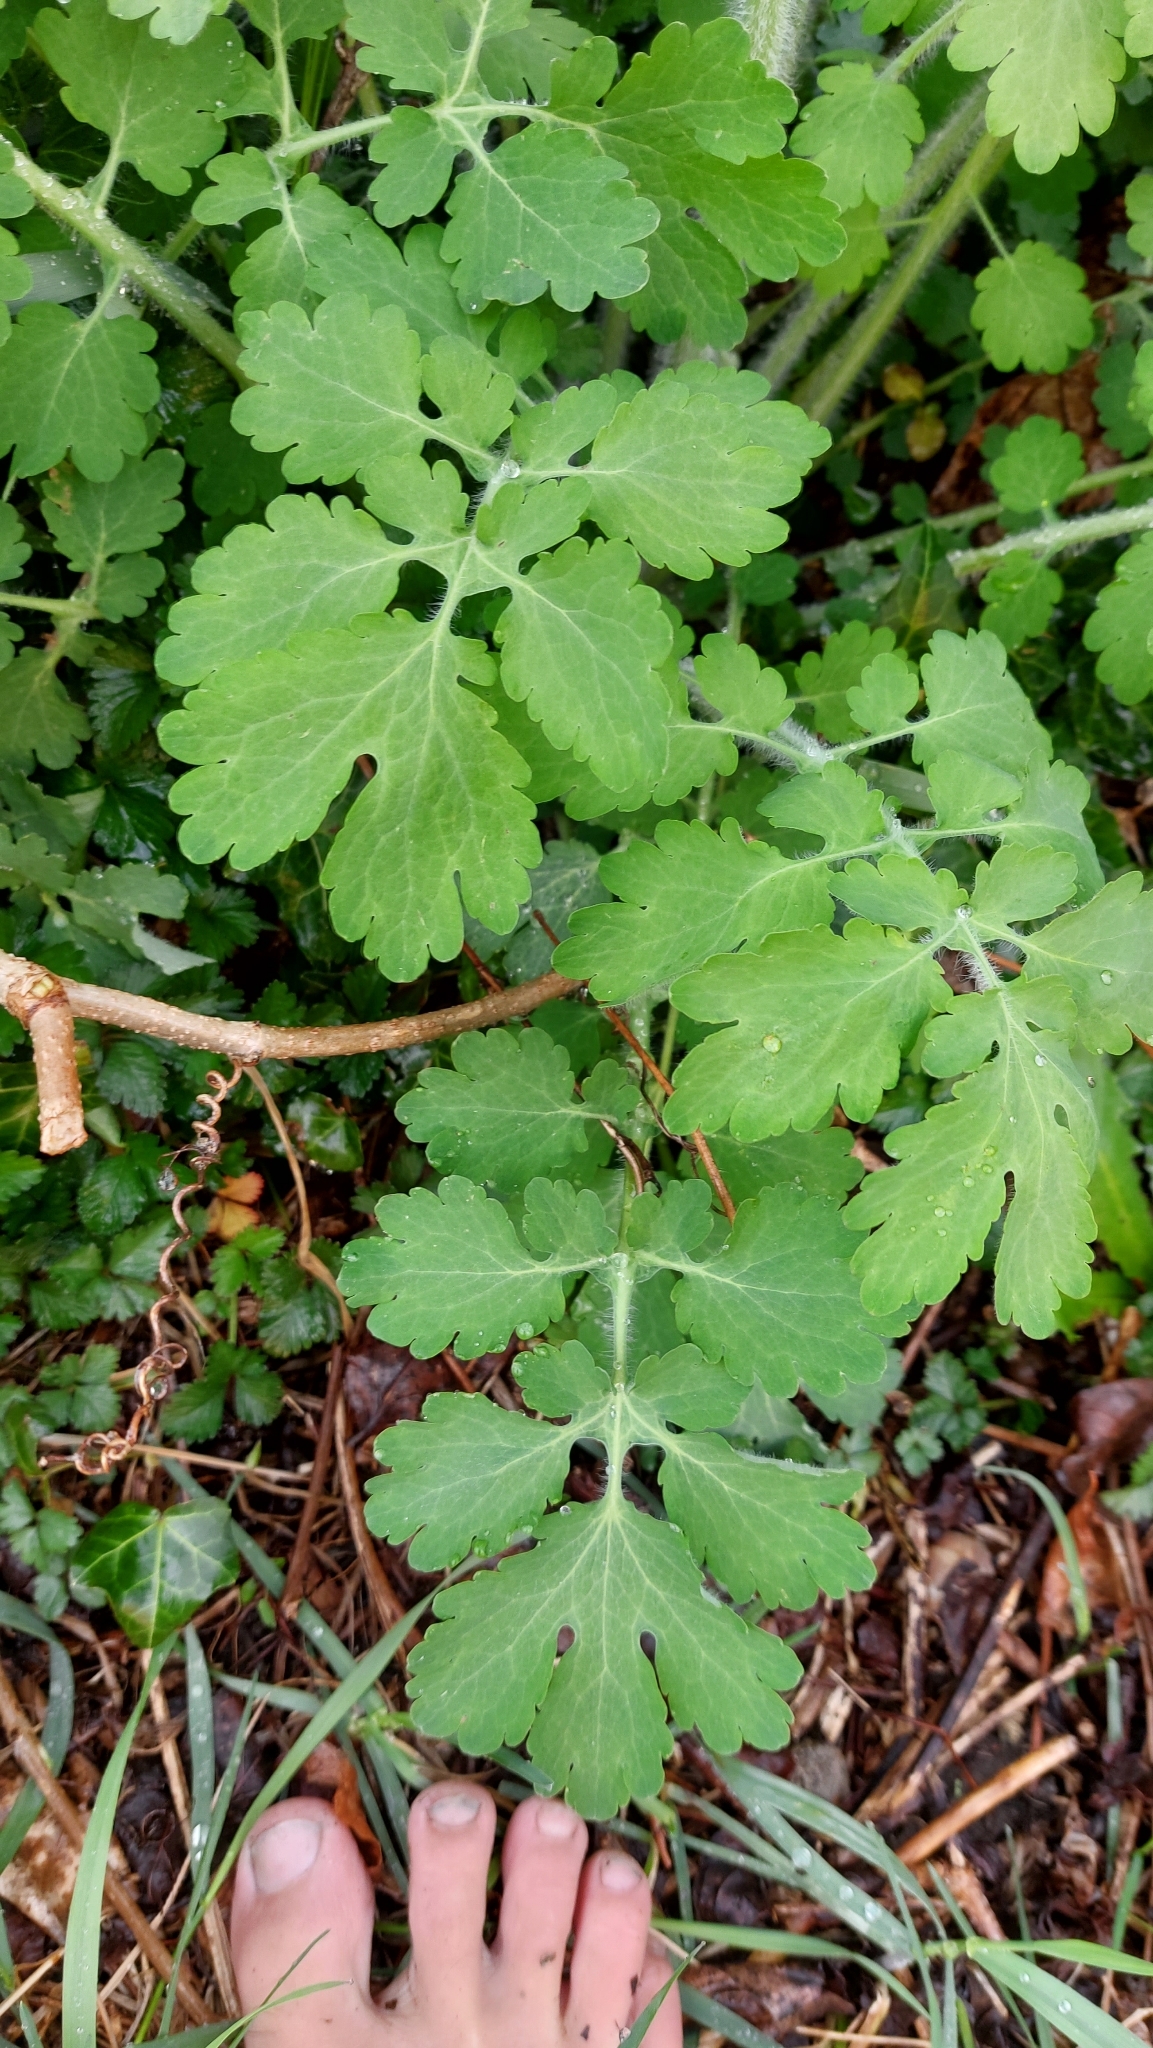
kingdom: Plantae
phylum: Tracheophyta
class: Magnoliopsida
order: Ranunculales
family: Papaveraceae
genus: Chelidonium
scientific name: Chelidonium majus
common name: Greater celandine
